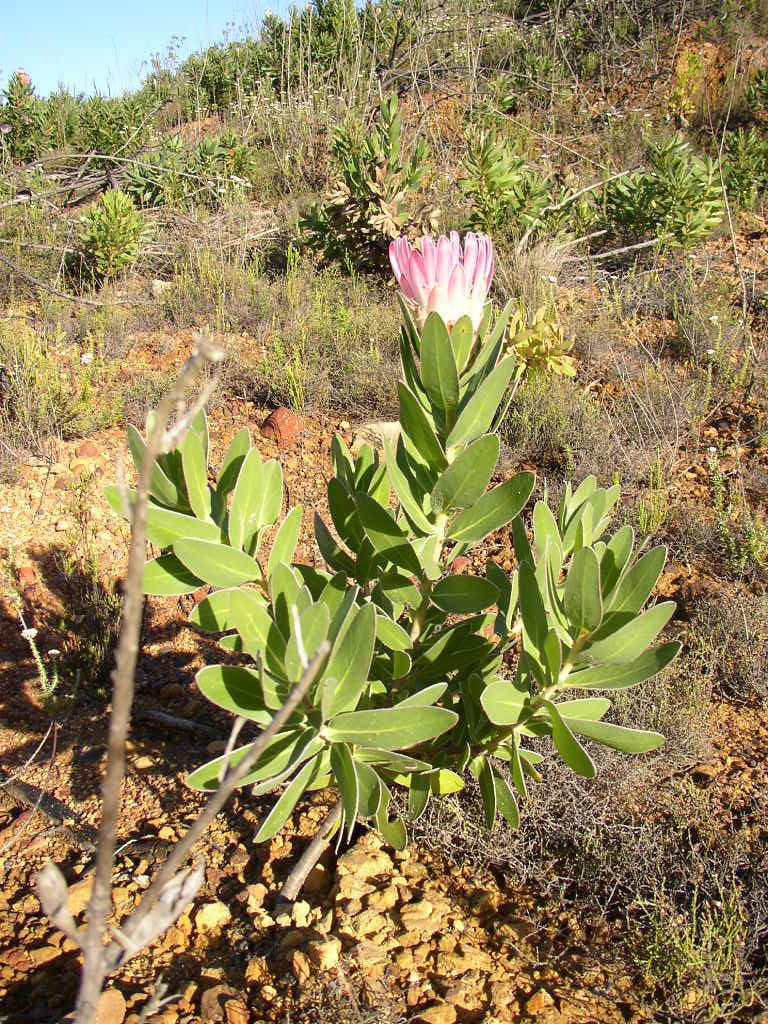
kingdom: Plantae
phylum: Tracheophyta
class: Magnoliopsida
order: Proteales
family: Proteaceae
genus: Protea
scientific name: Protea compacta
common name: Bot river protea
